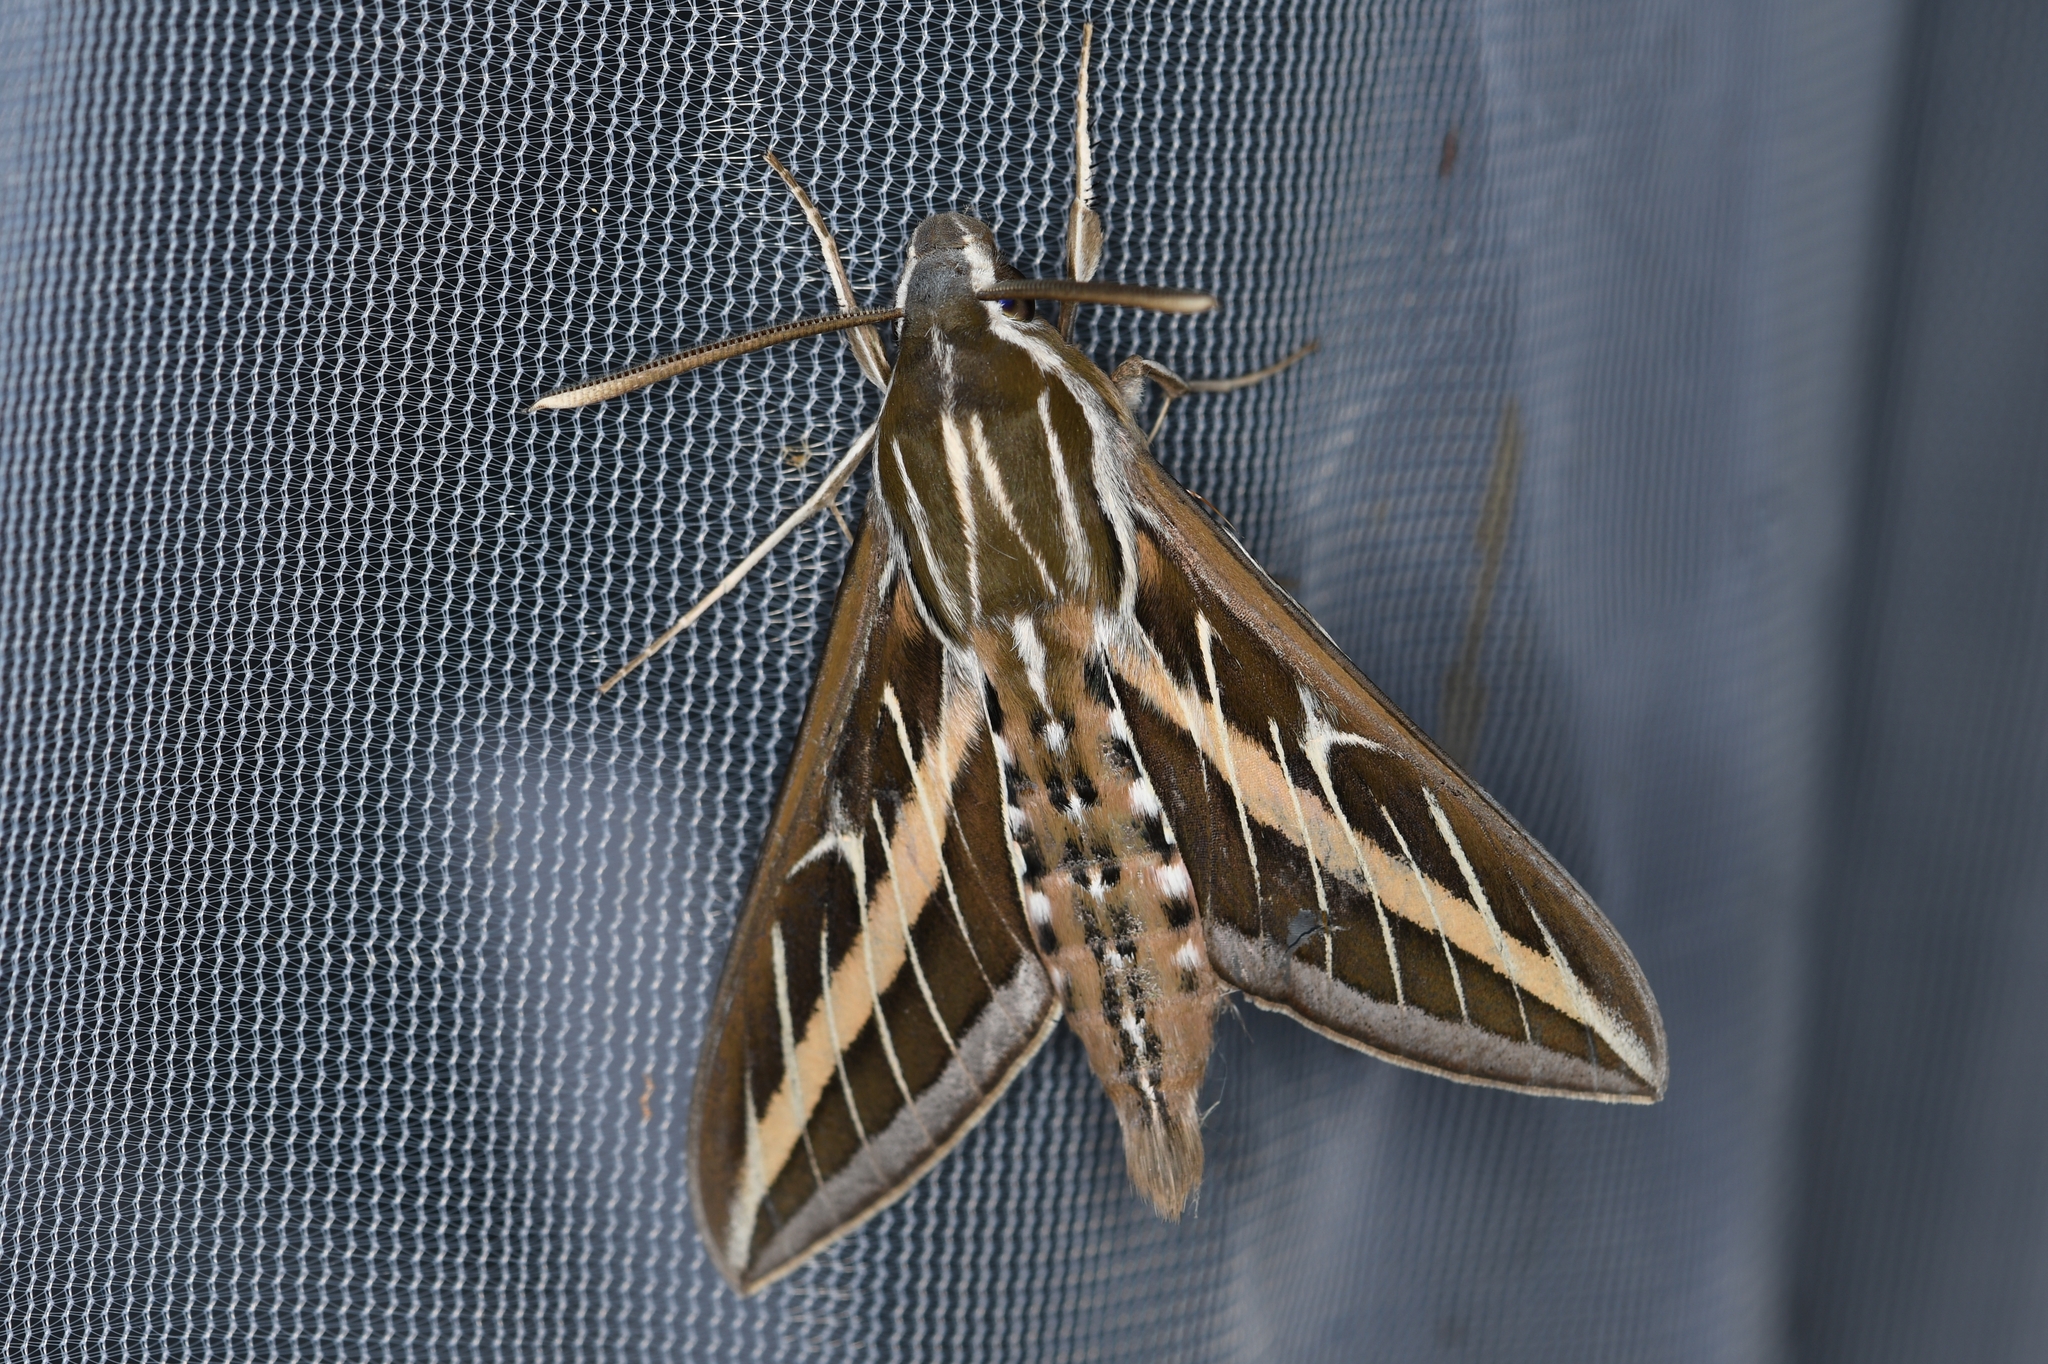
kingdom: Animalia
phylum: Arthropoda
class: Insecta
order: Lepidoptera
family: Sphingidae
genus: Hyles
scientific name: Hyles lineata
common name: White-lined sphinx
